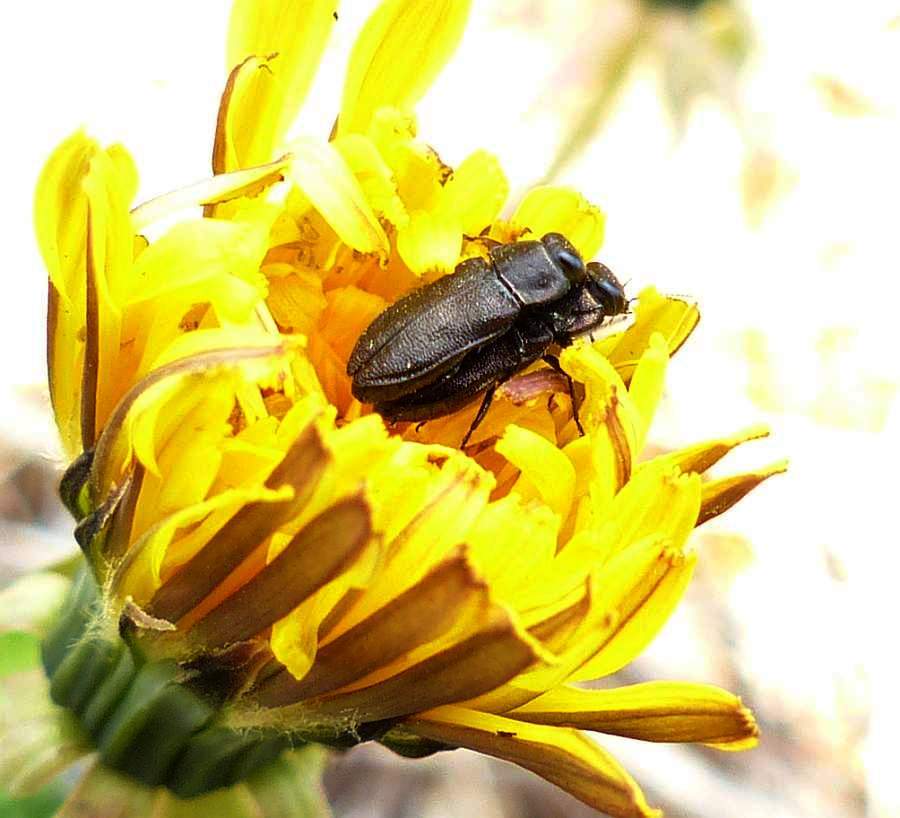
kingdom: Animalia
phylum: Arthropoda
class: Insecta
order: Coleoptera
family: Buprestidae
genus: Anthaxia
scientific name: Anthaxia inornata
